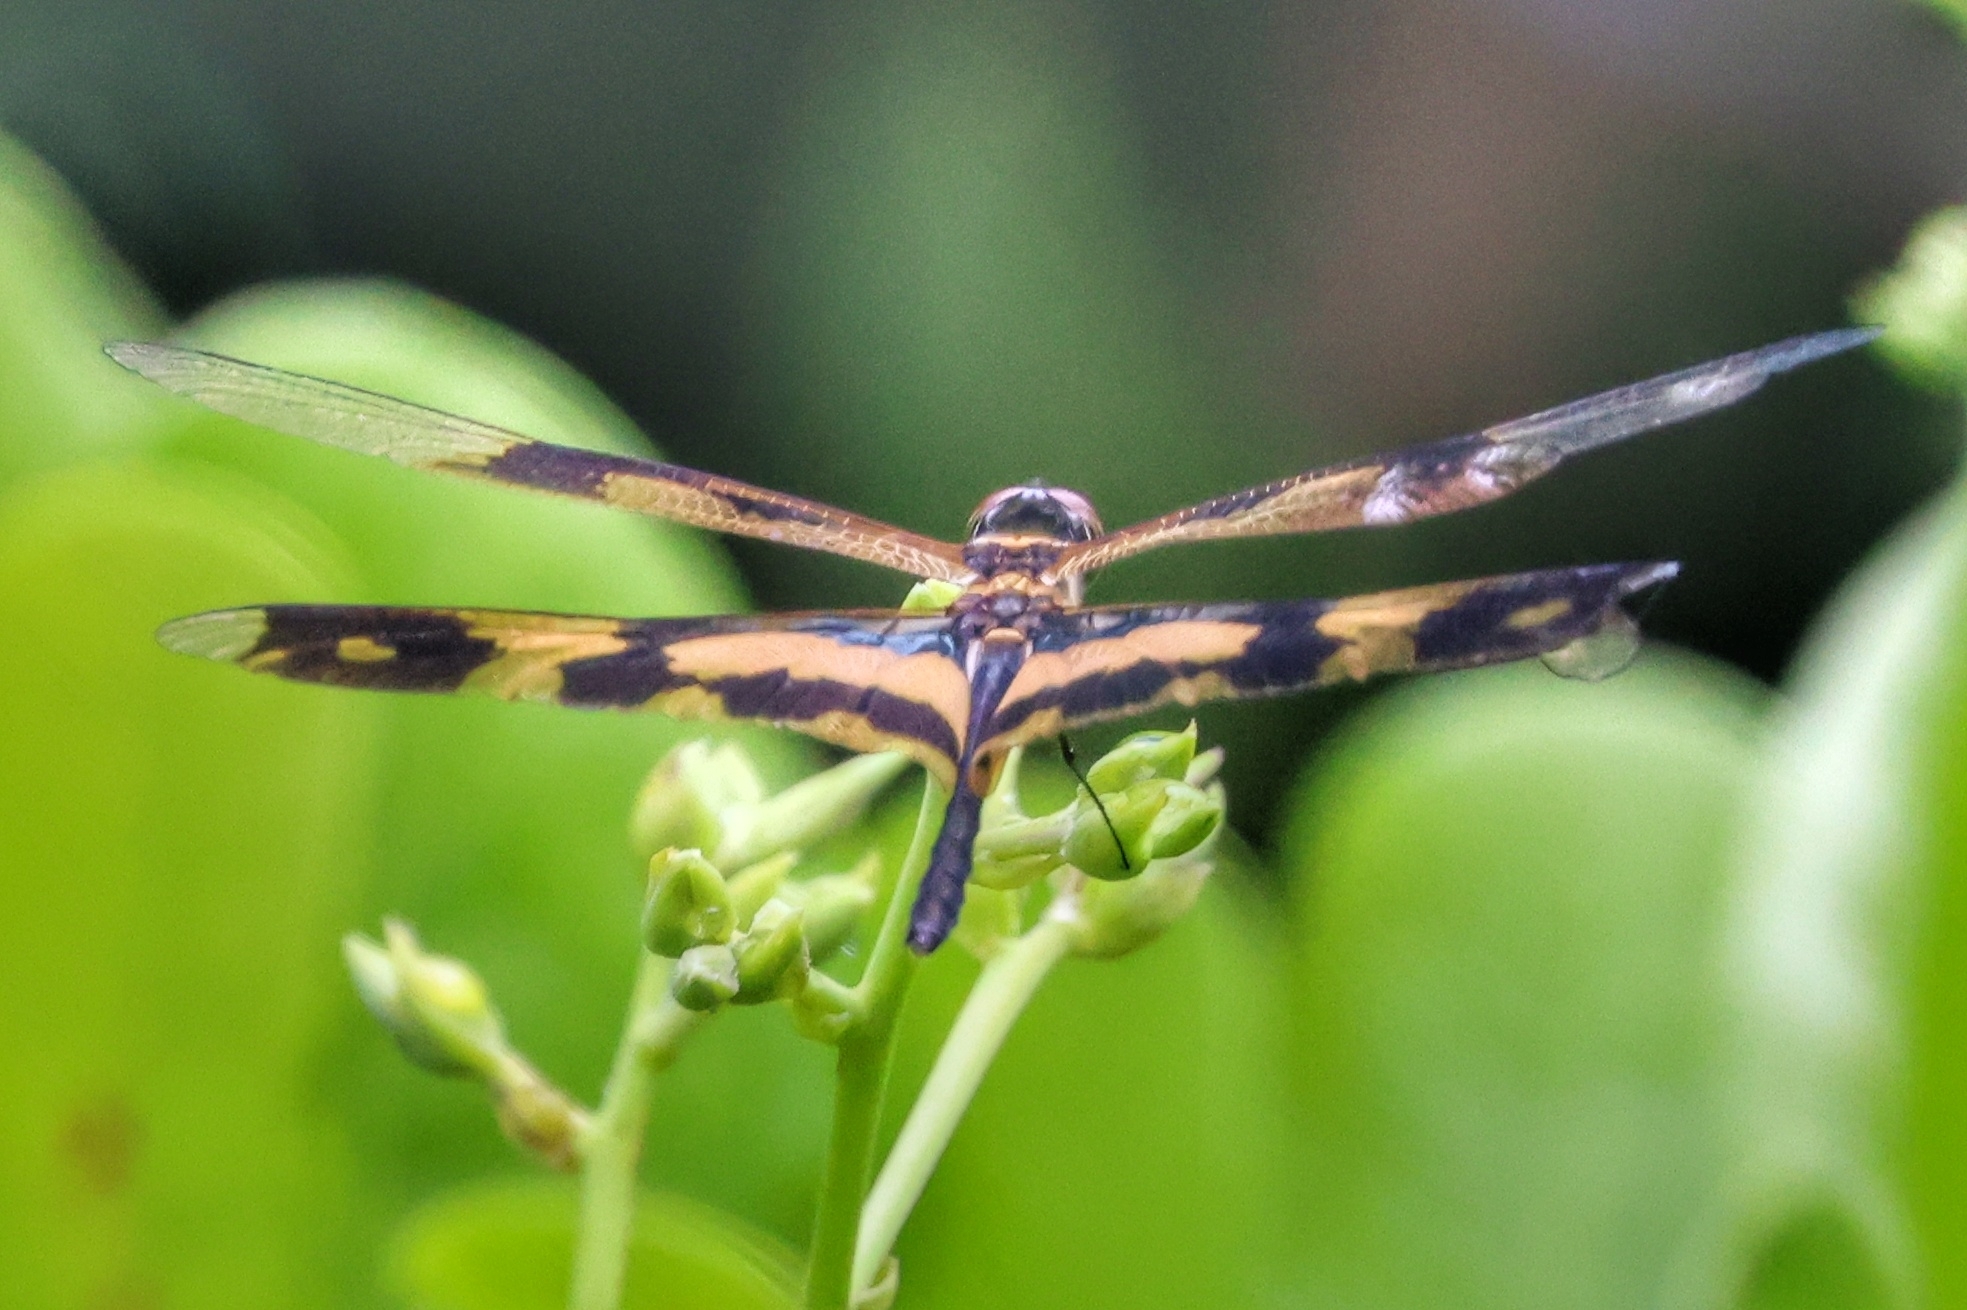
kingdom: Animalia
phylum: Arthropoda
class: Insecta
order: Odonata
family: Libellulidae
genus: Rhyothemis
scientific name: Rhyothemis variegata
